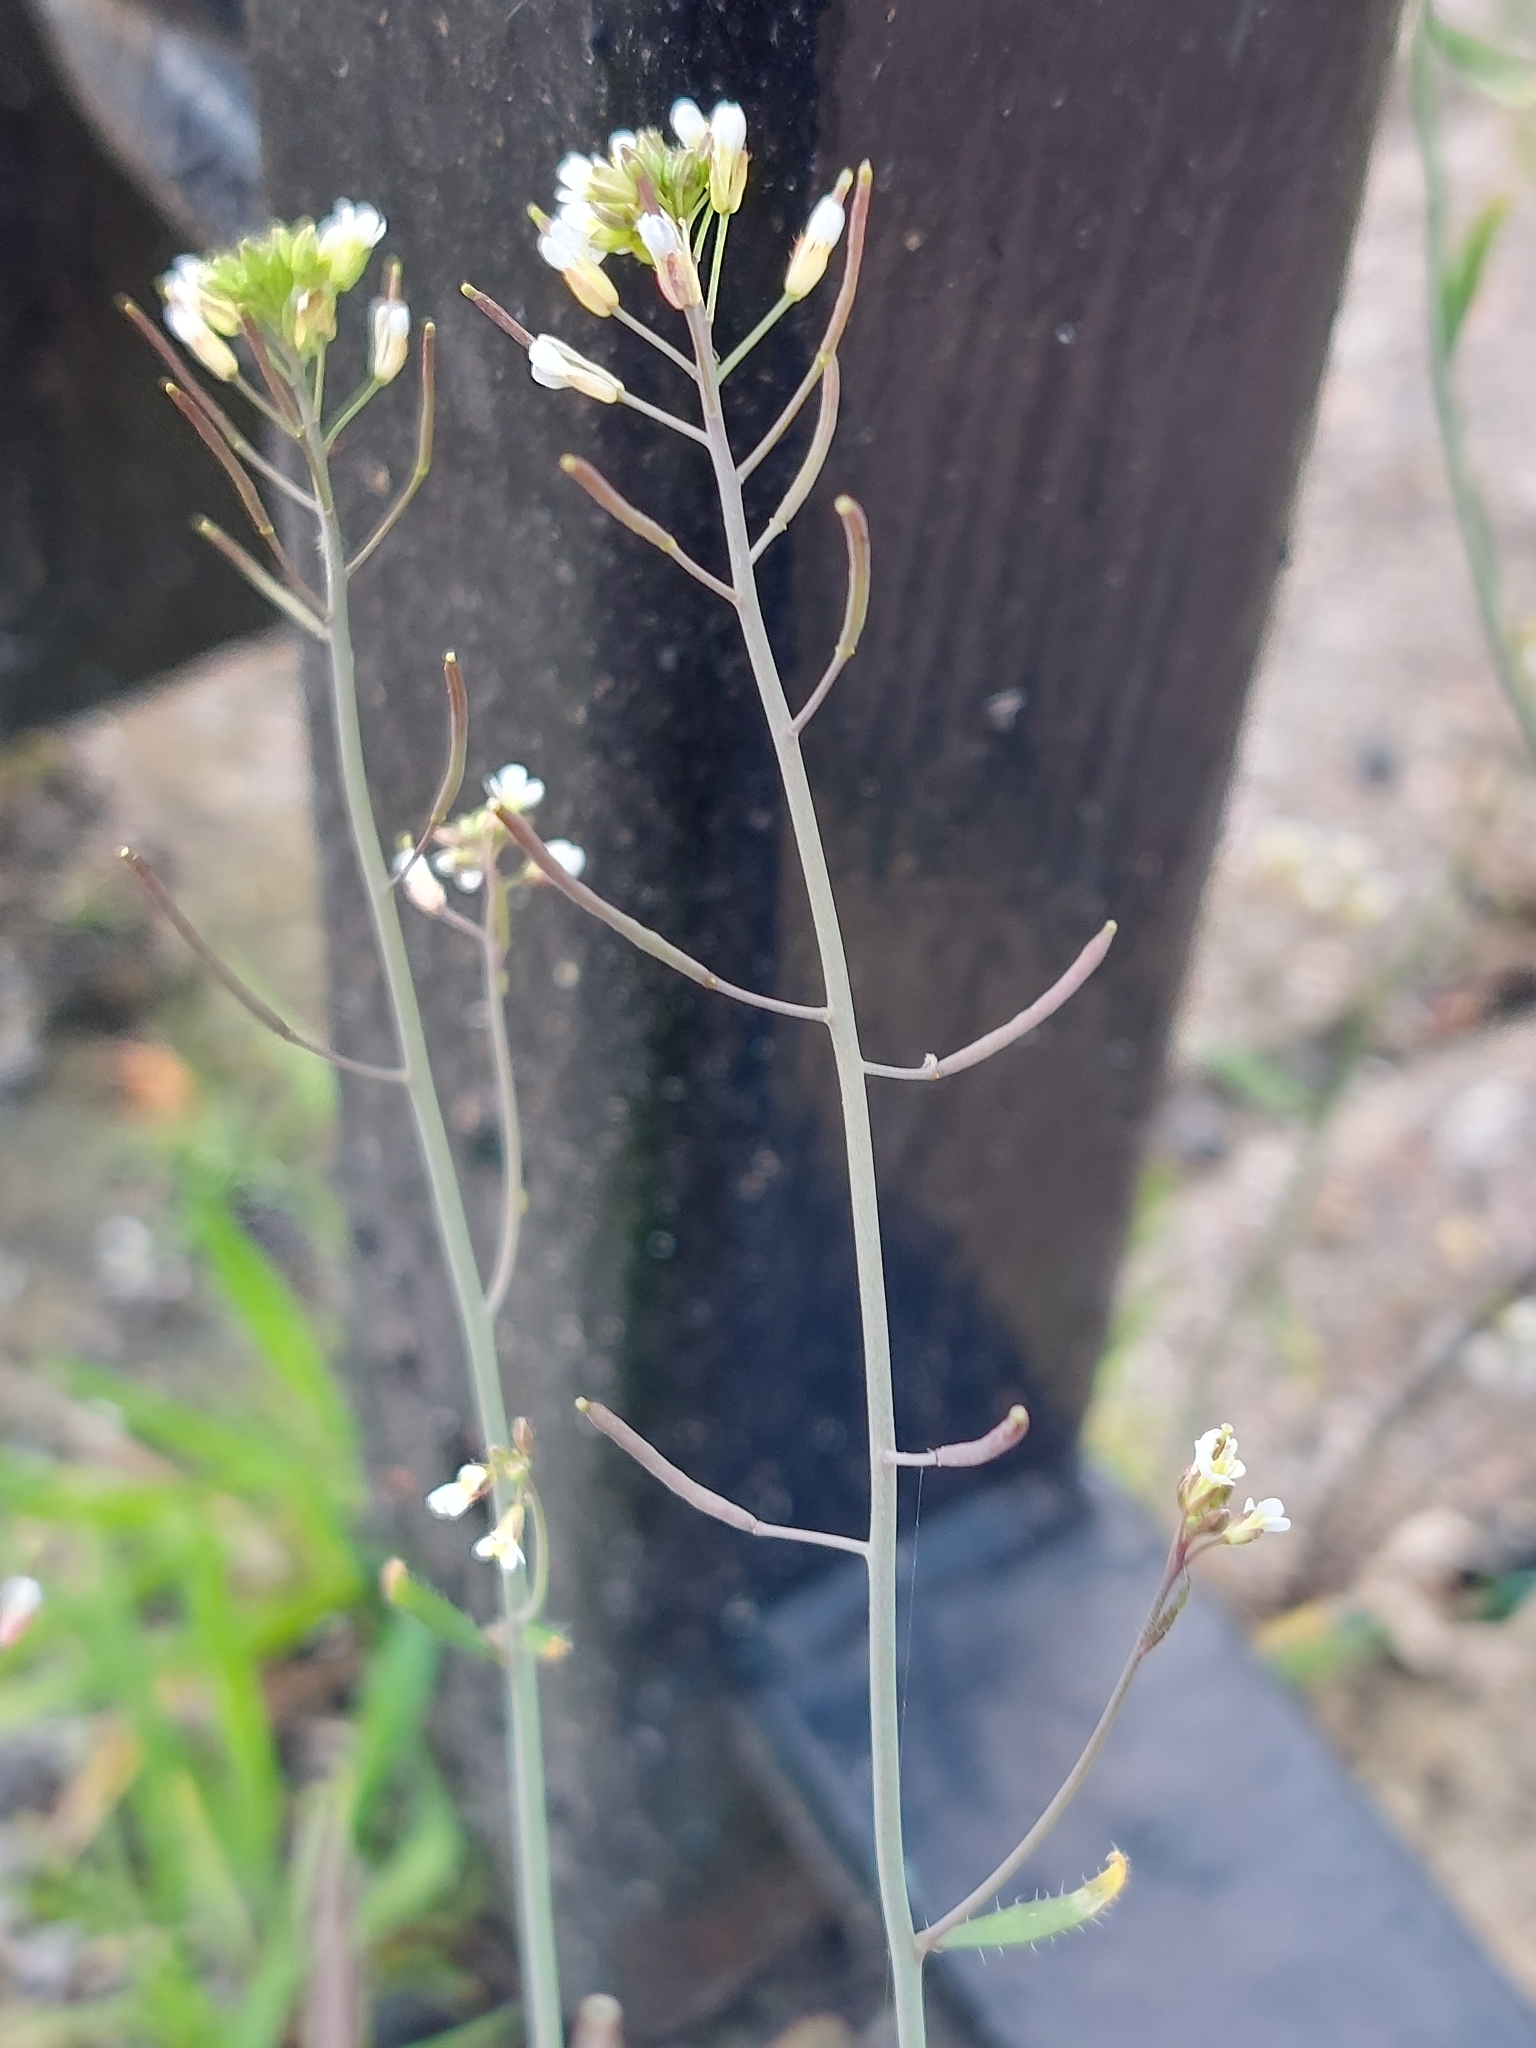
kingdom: Plantae
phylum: Tracheophyta
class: Magnoliopsida
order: Brassicales
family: Brassicaceae
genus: Arabidopsis
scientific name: Arabidopsis thaliana
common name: Thale cress
